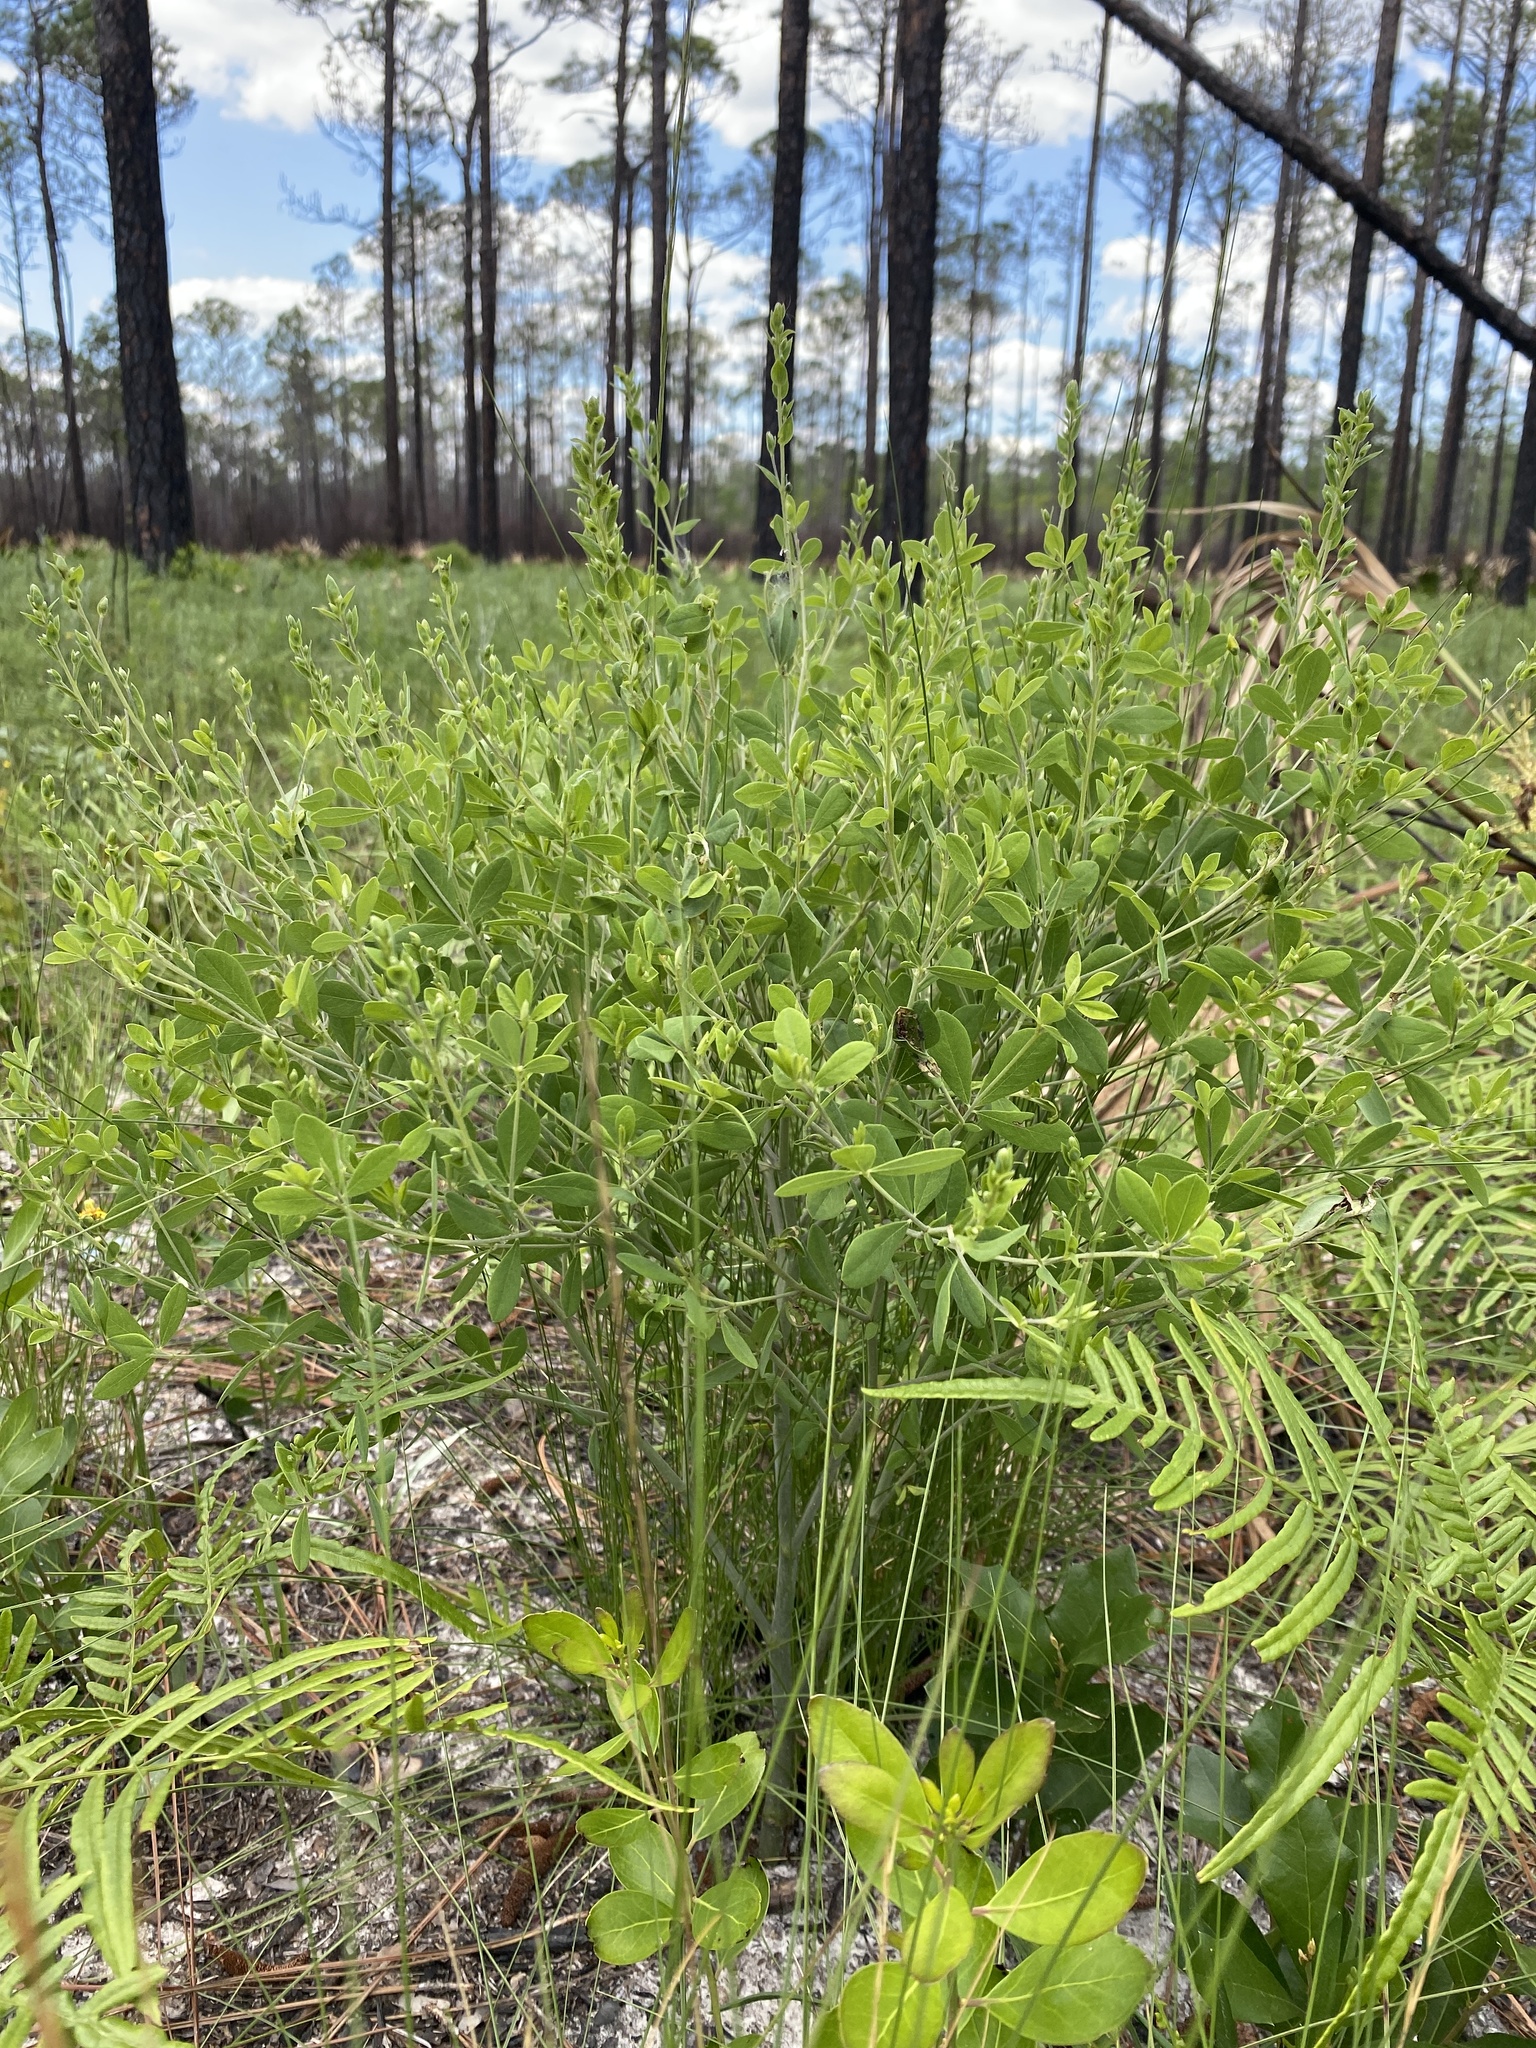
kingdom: Plantae
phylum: Tracheophyta
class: Magnoliopsida
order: Fabales
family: Fabaceae
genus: Baptisia
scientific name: Baptisia lecontei
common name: Pineland wild indigo
